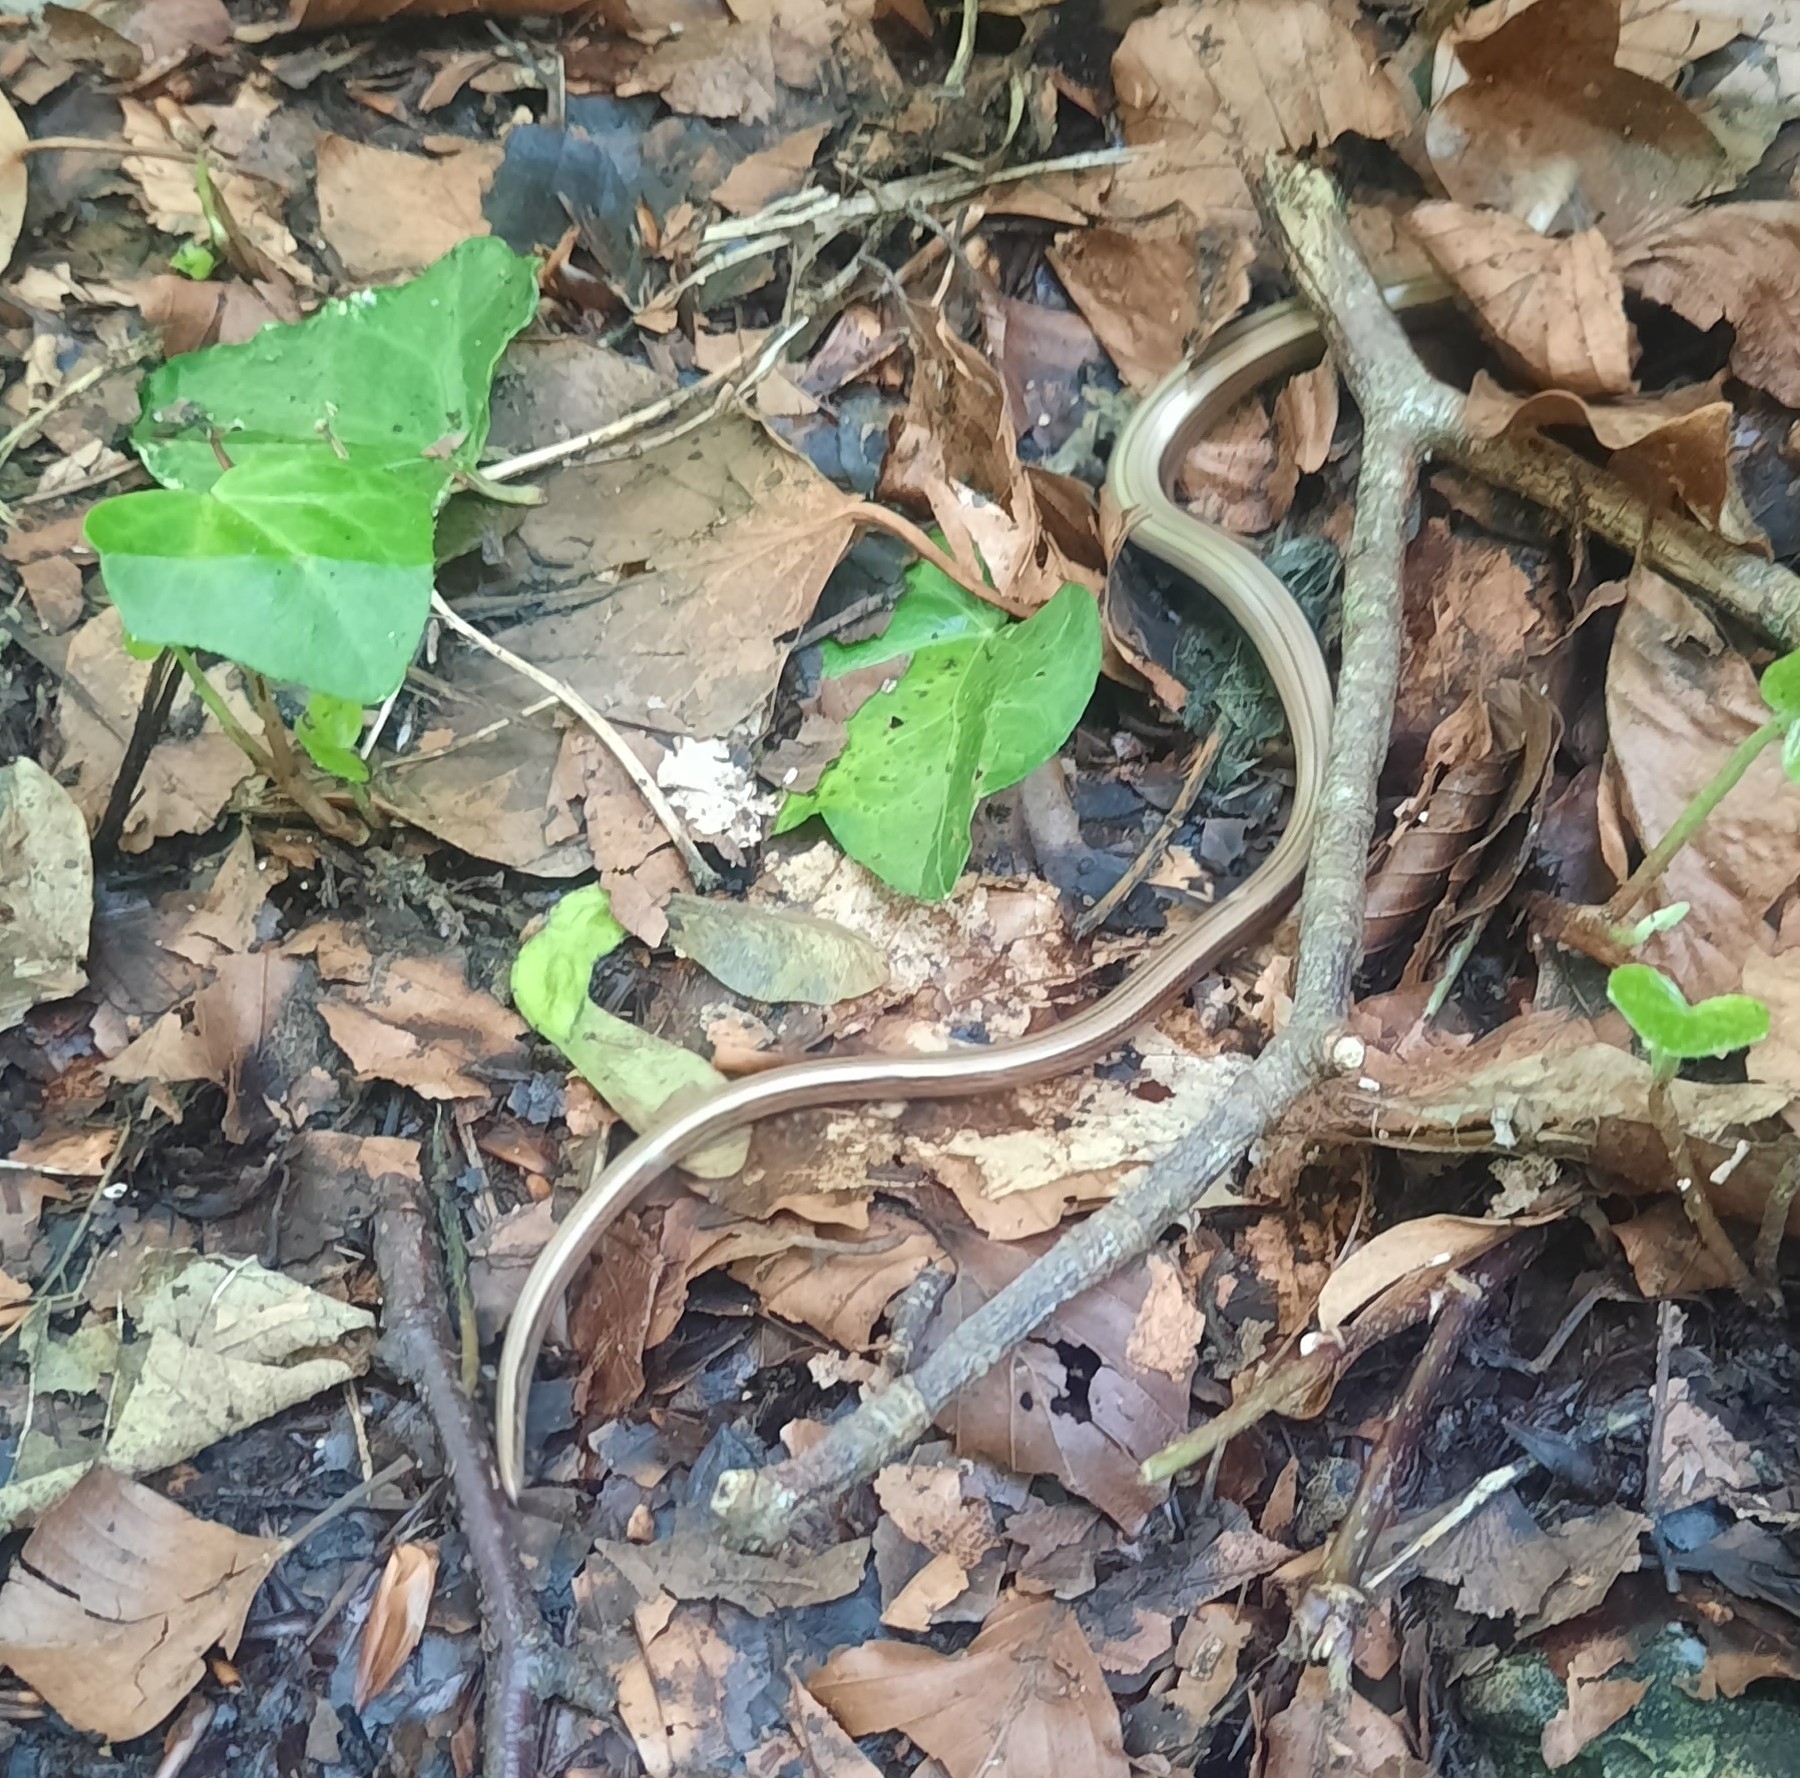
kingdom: Animalia
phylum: Chordata
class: Squamata
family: Anguidae
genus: Anguis
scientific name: Anguis fragilis
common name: Slow worm
